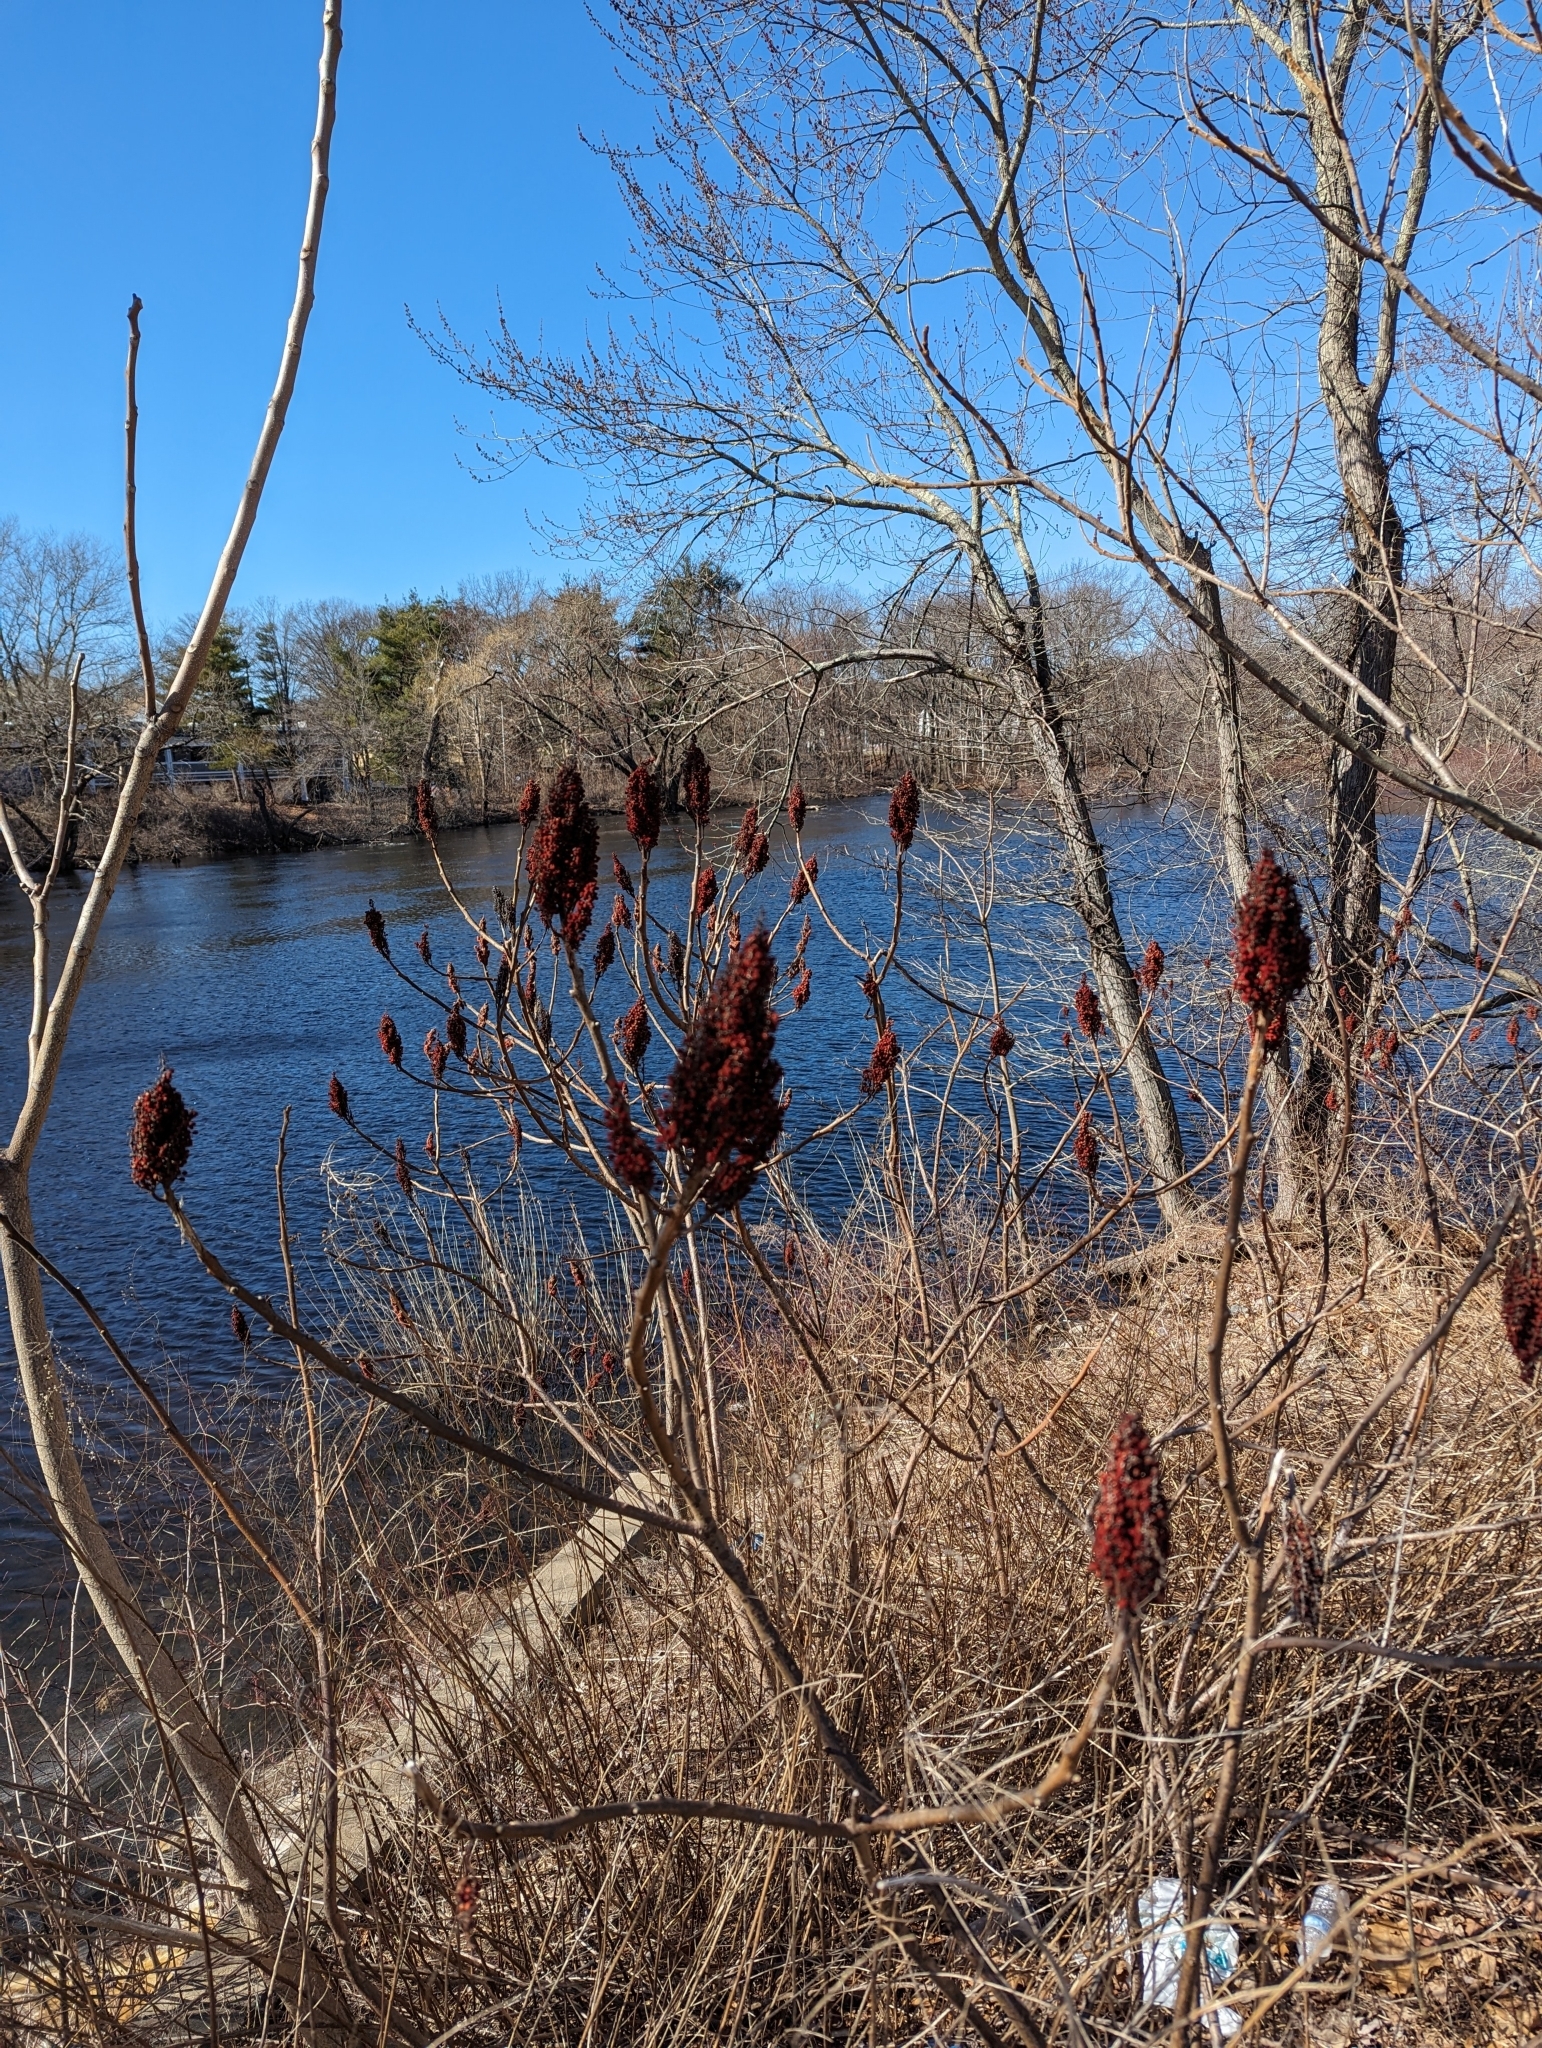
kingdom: Plantae
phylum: Tracheophyta
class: Magnoliopsida
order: Sapindales
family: Anacardiaceae
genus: Rhus
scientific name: Rhus glabra
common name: Scarlet sumac
